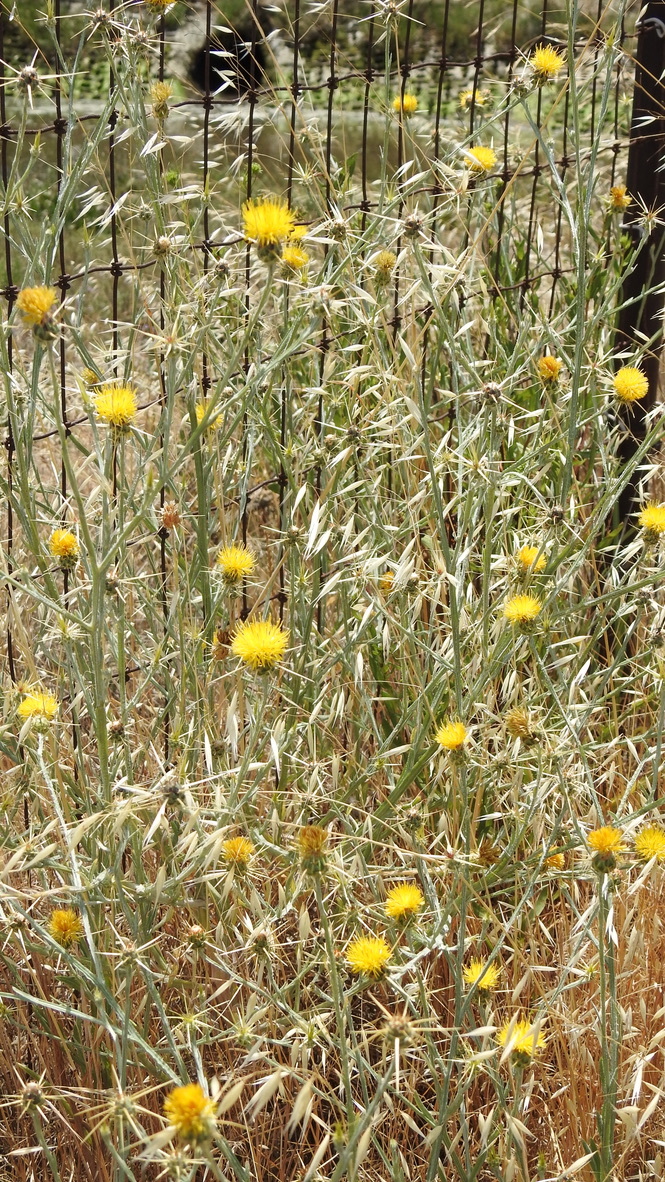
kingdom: Plantae
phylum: Tracheophyta
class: Magnoliopsida
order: Asterales
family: Asteraceae
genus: Centaurea
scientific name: Centaurea solstitialis
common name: Yellow star-thistle
